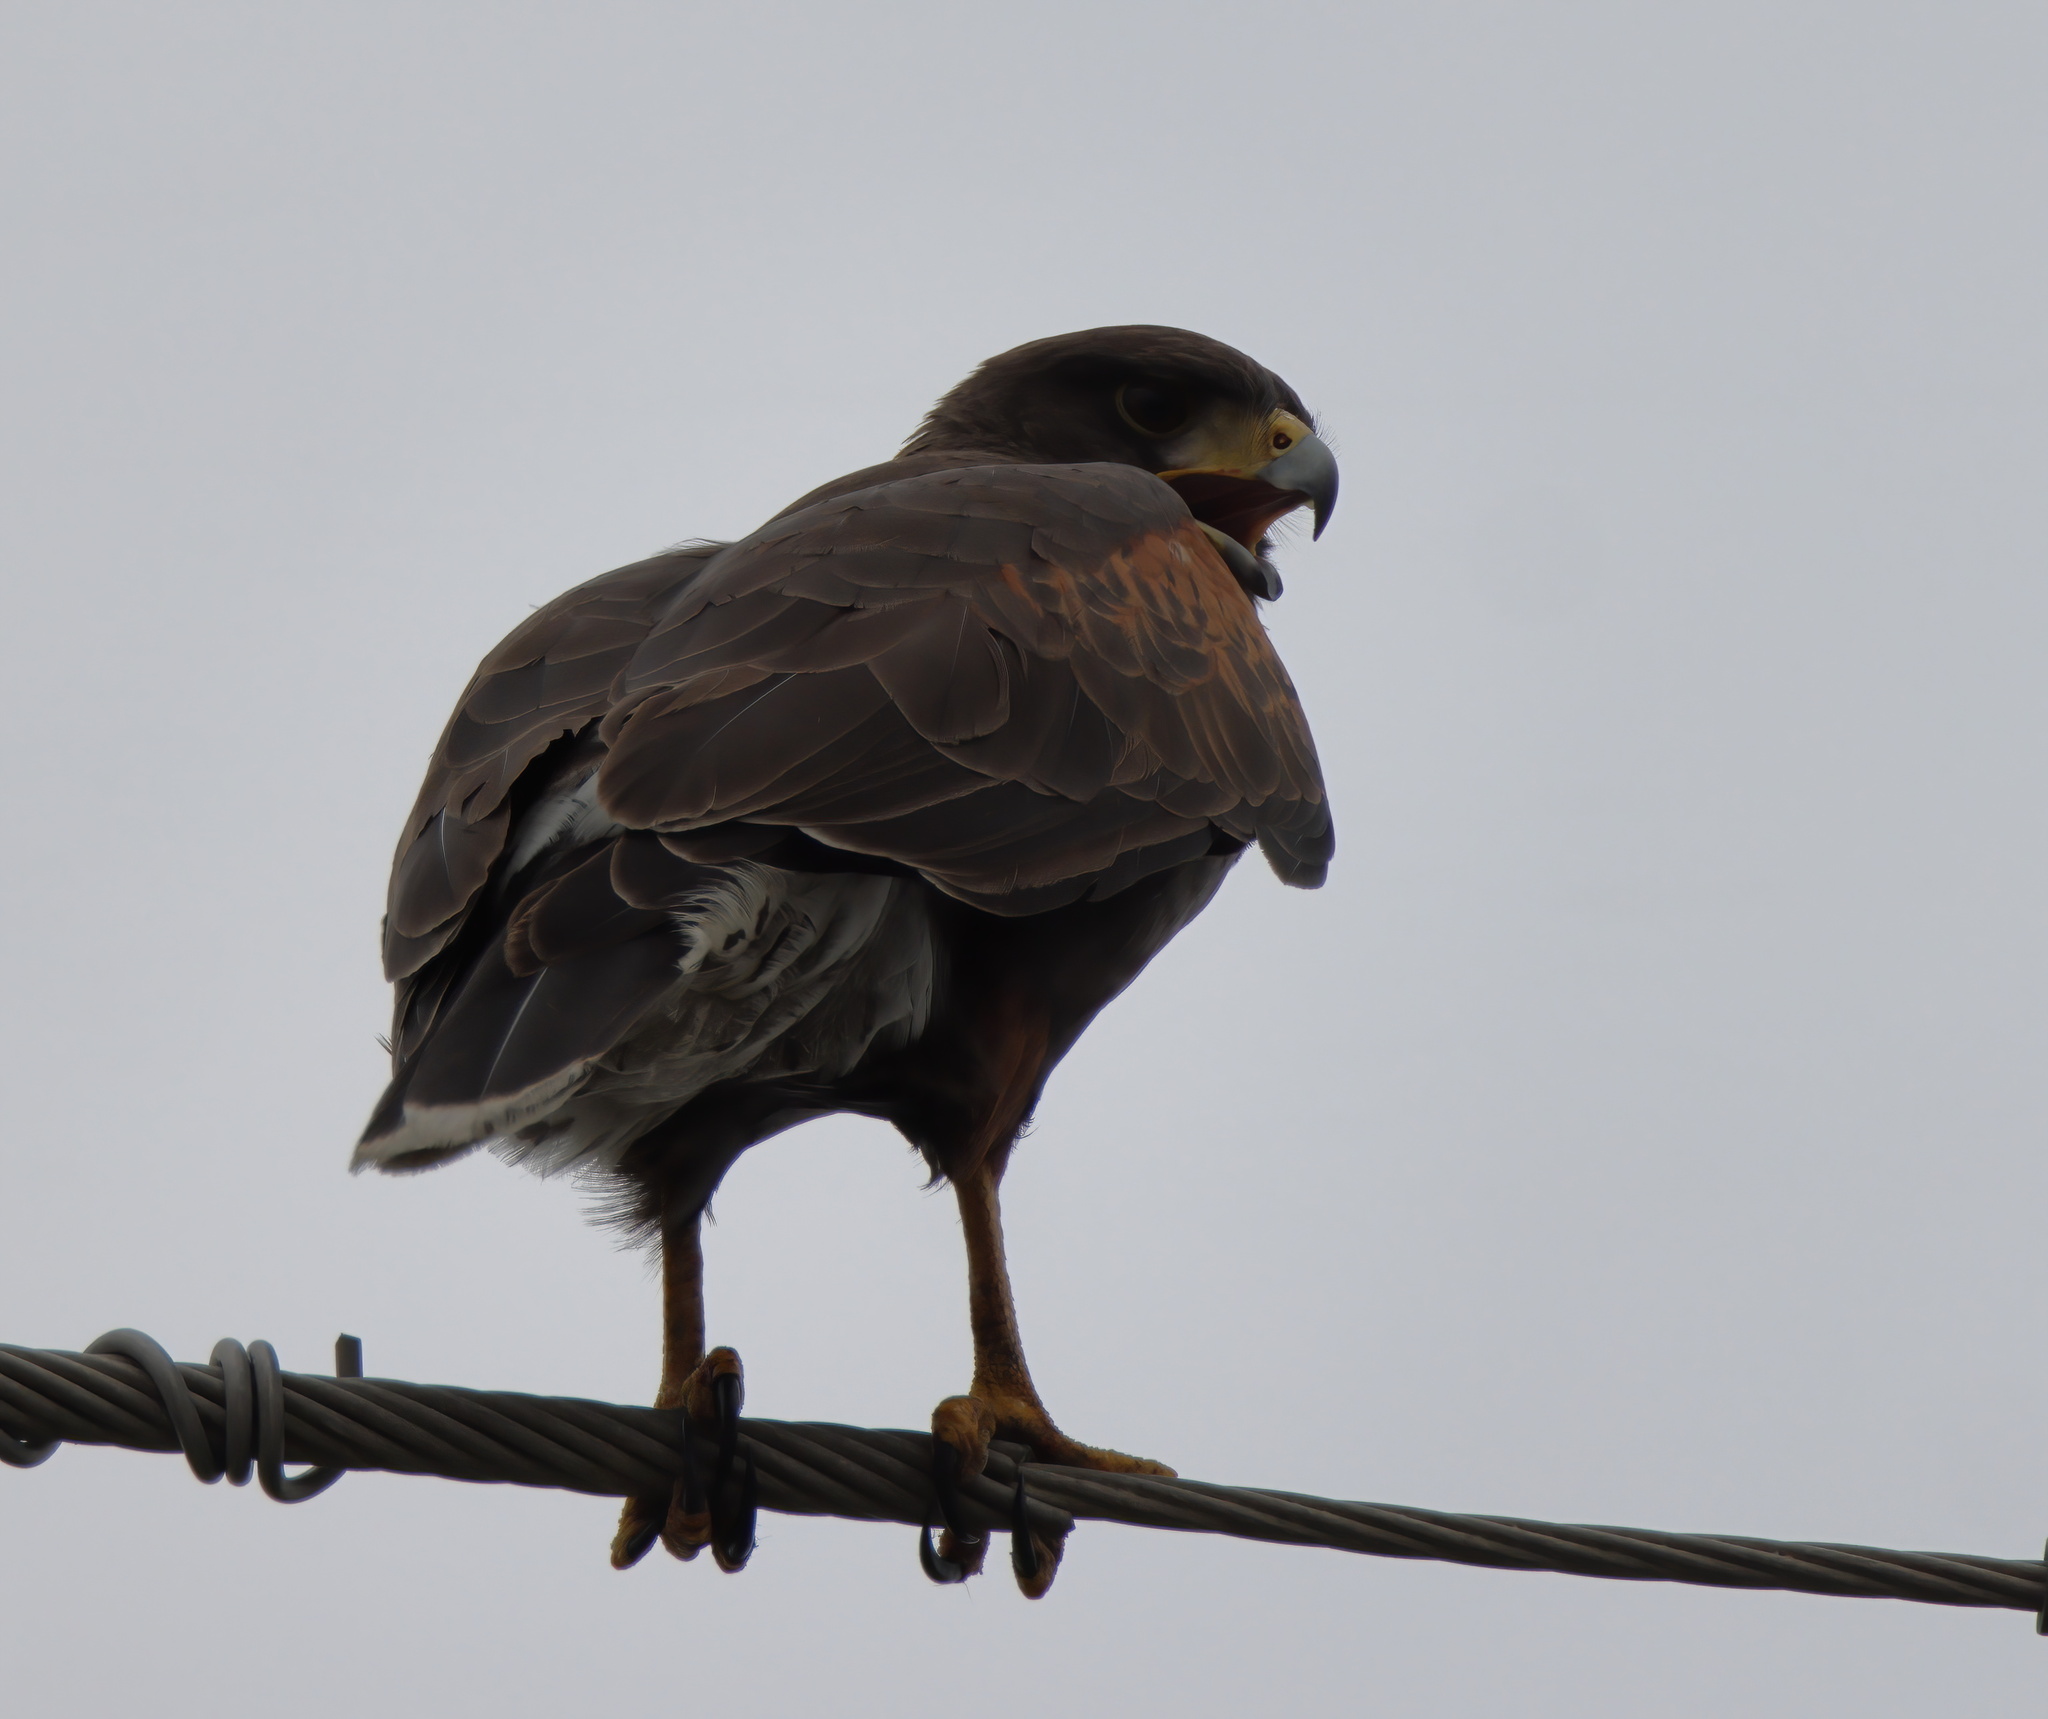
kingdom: Animalia
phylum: Chordata
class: Aves
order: Accipitriformes
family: Accipitridae
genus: Parabuteo
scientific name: Parabuteo unicinctus
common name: Harris's hawk
